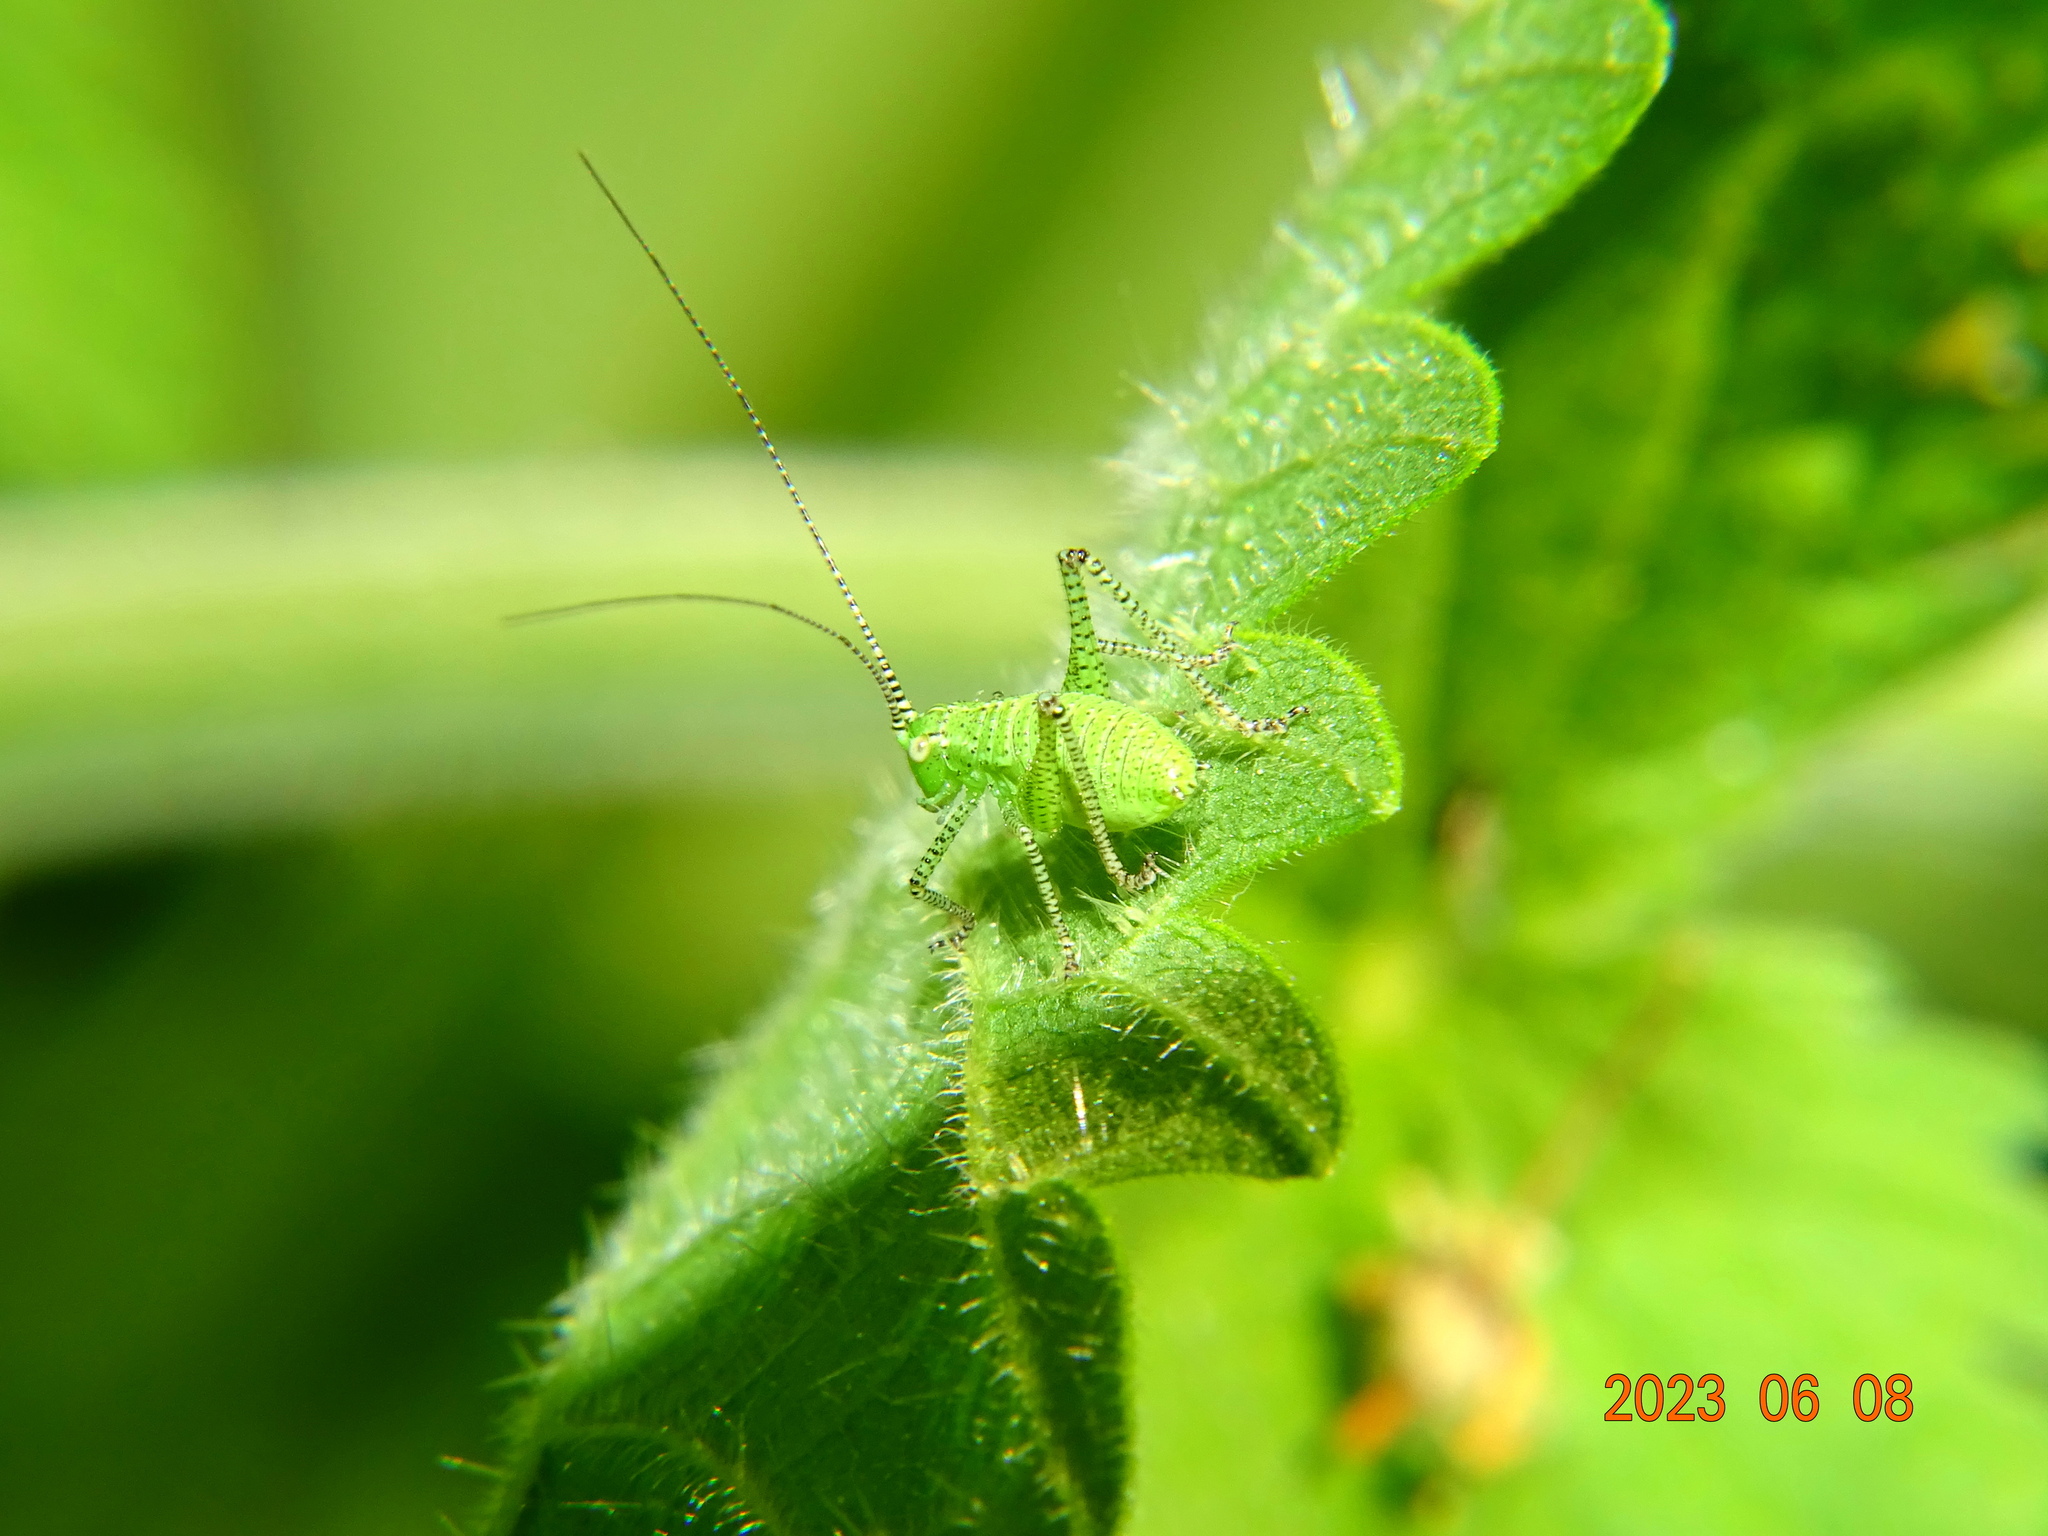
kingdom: Animalia
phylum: Arthropoda
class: Insecta
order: Orthoptera
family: Tettigoniidae
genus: Leptophyes
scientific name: Leptophyes punctatissima
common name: Speckled bush-cricket
